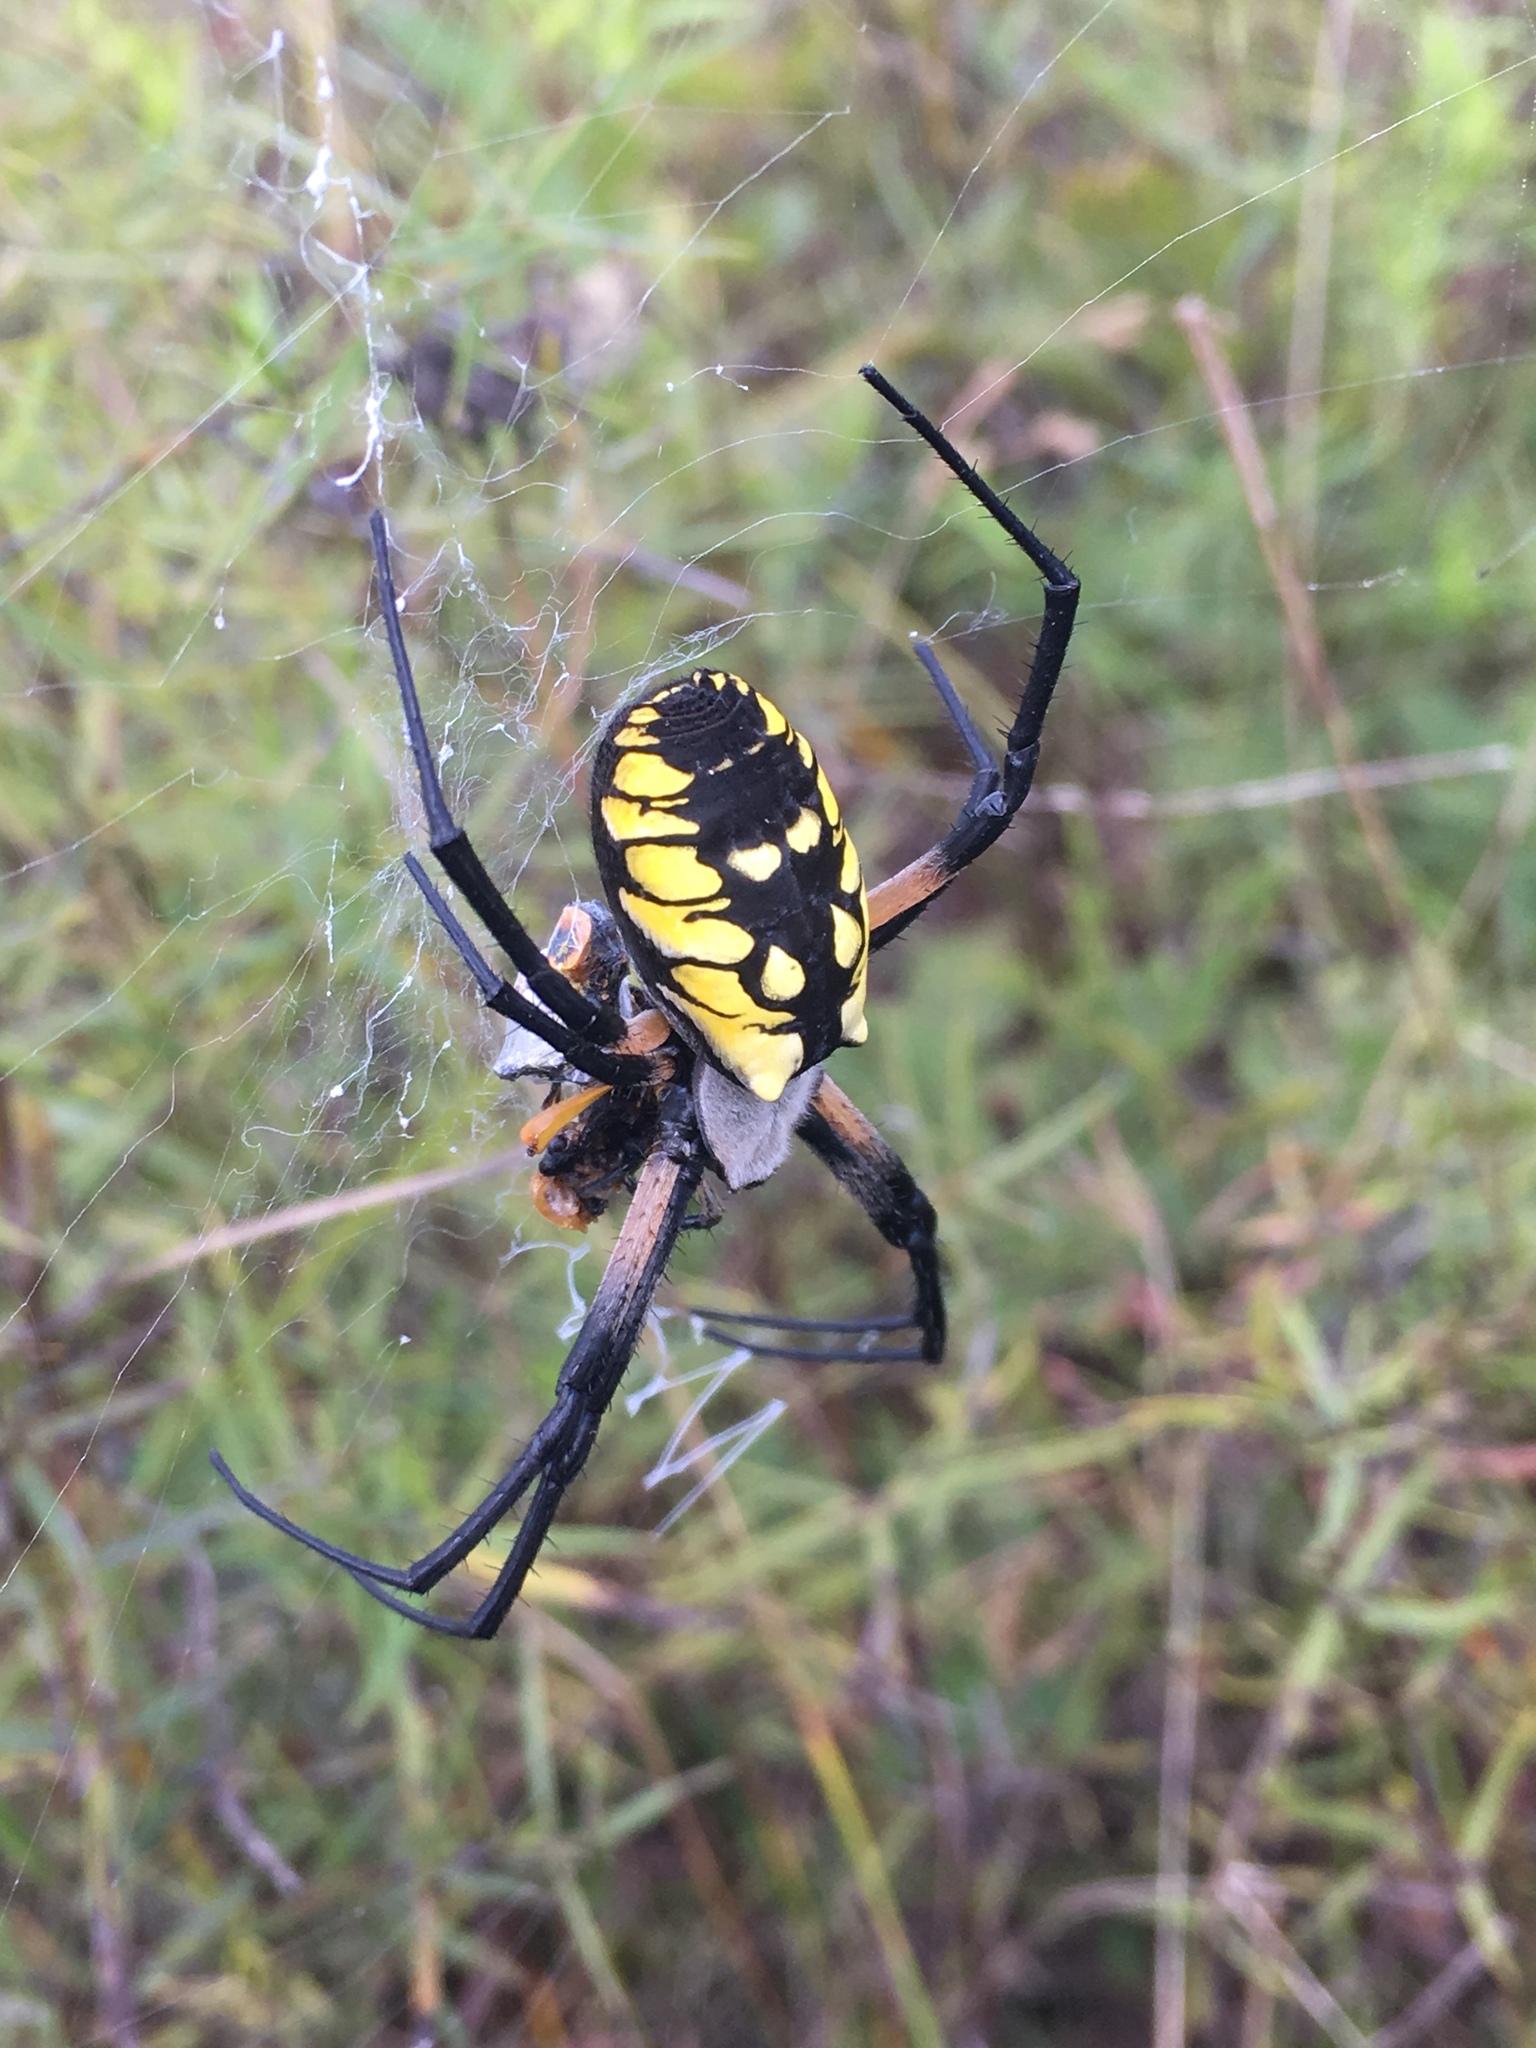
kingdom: Animalia
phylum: Arthropoda
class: Arachnida
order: Araneae
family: Araneidae
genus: Argiope
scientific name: Argiope aurantia
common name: Orb weavers
